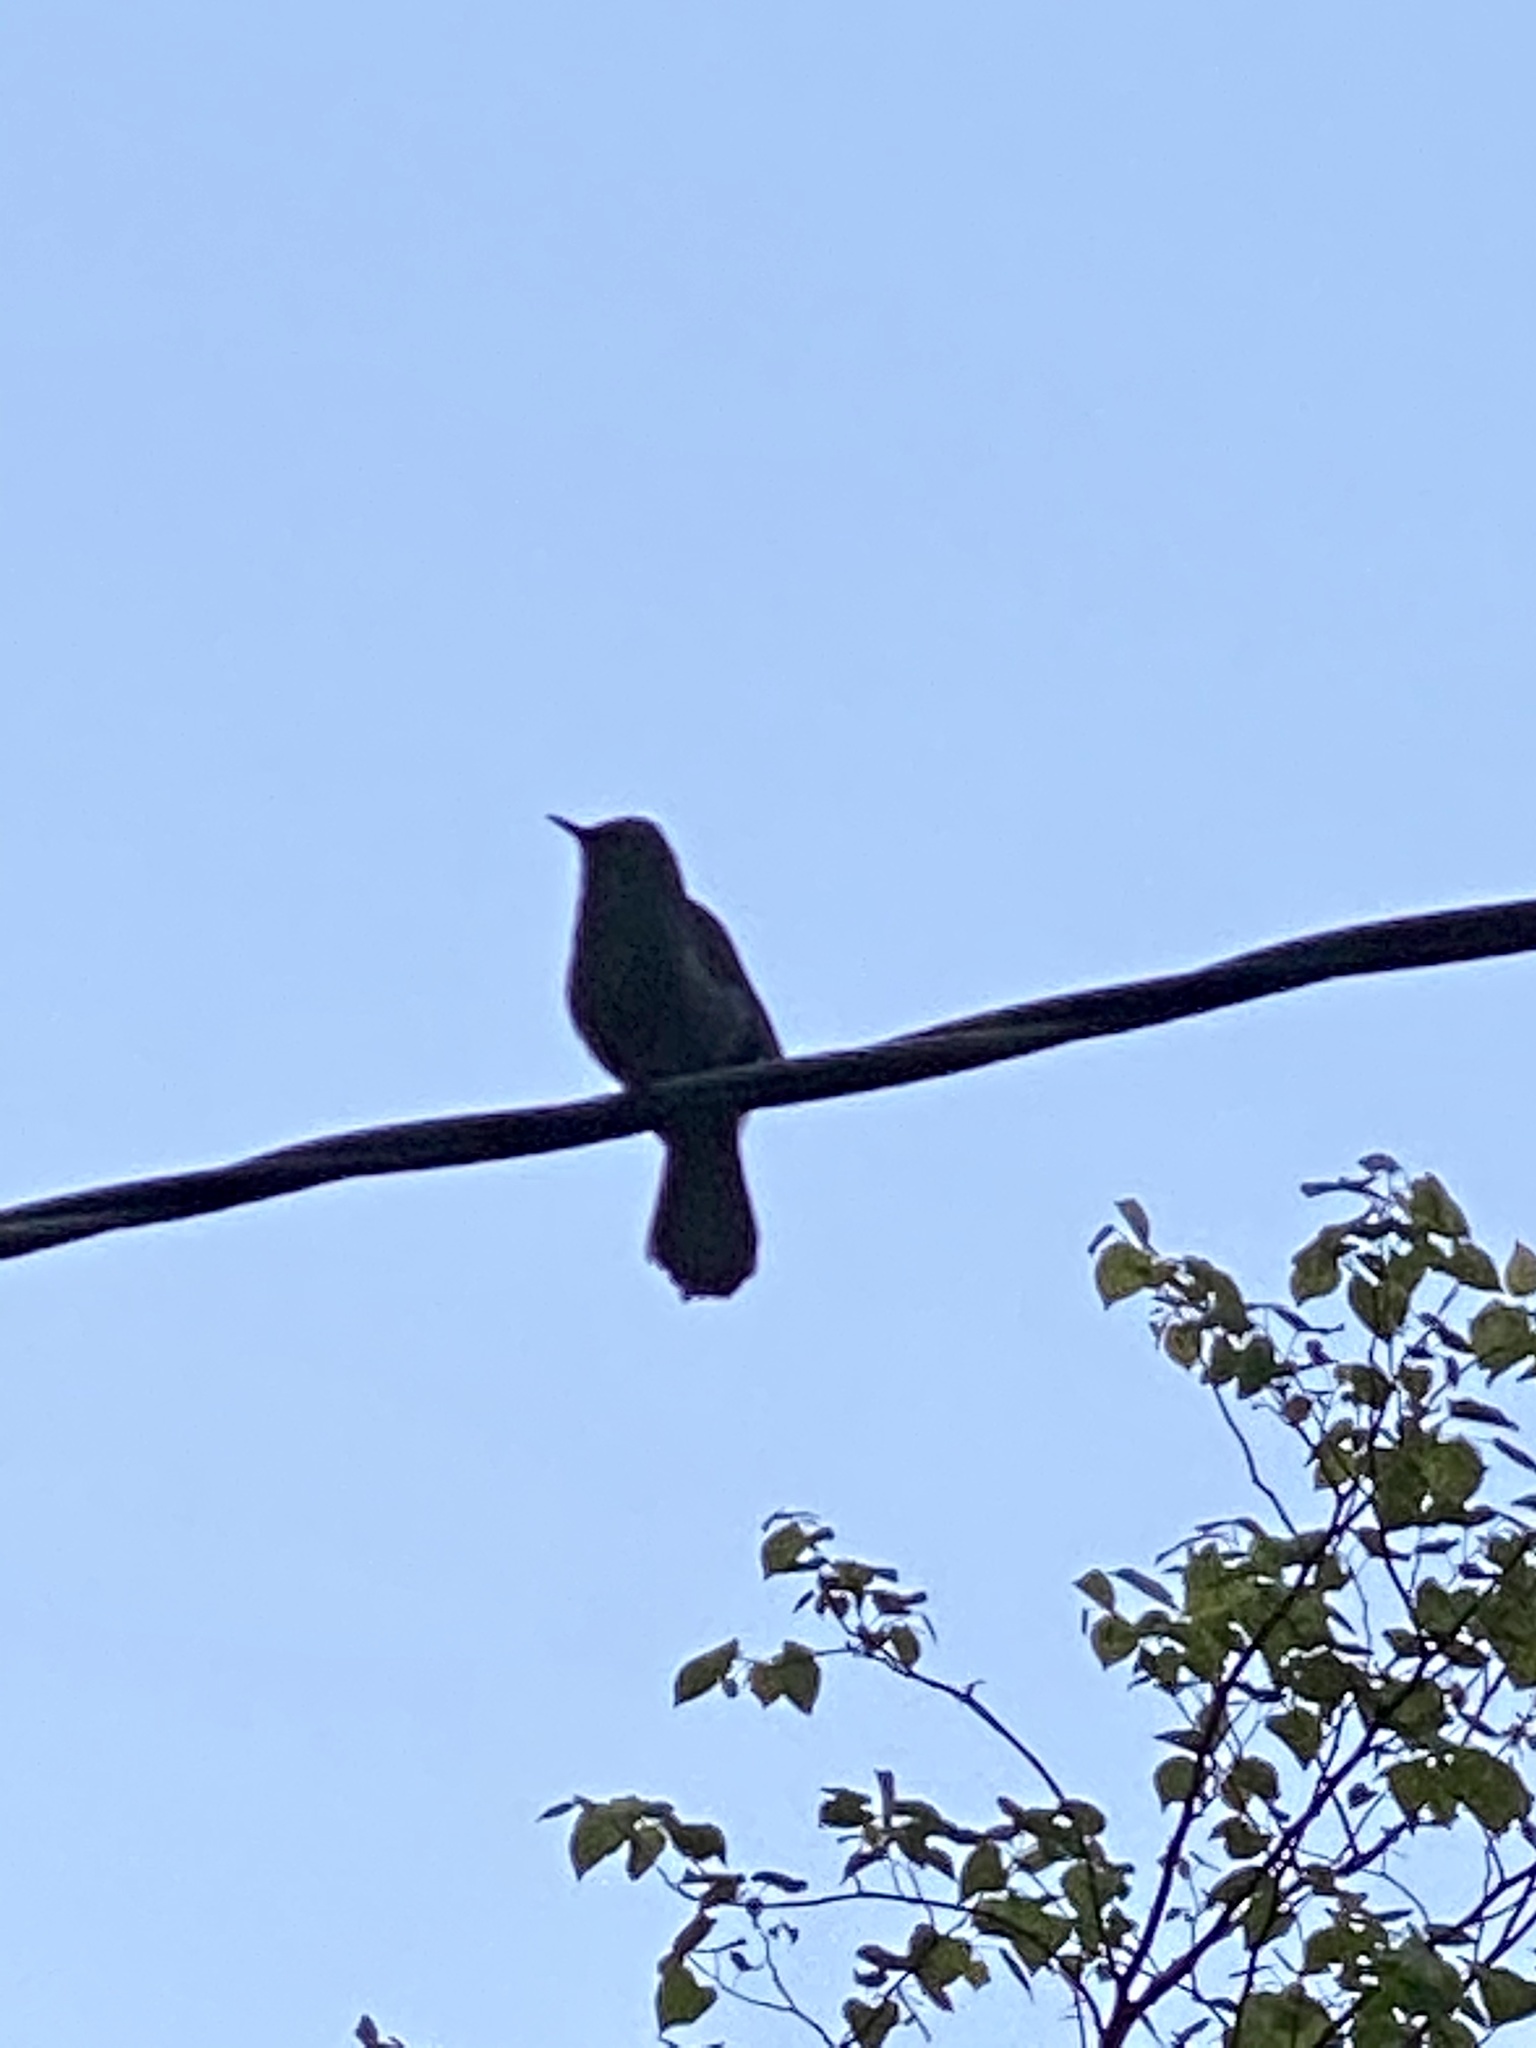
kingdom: Animalia
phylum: Chordata
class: Aves
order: Passeriformes
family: Mimidae
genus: Dumetella
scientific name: Dumetella carolinensis
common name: Gray catbird
